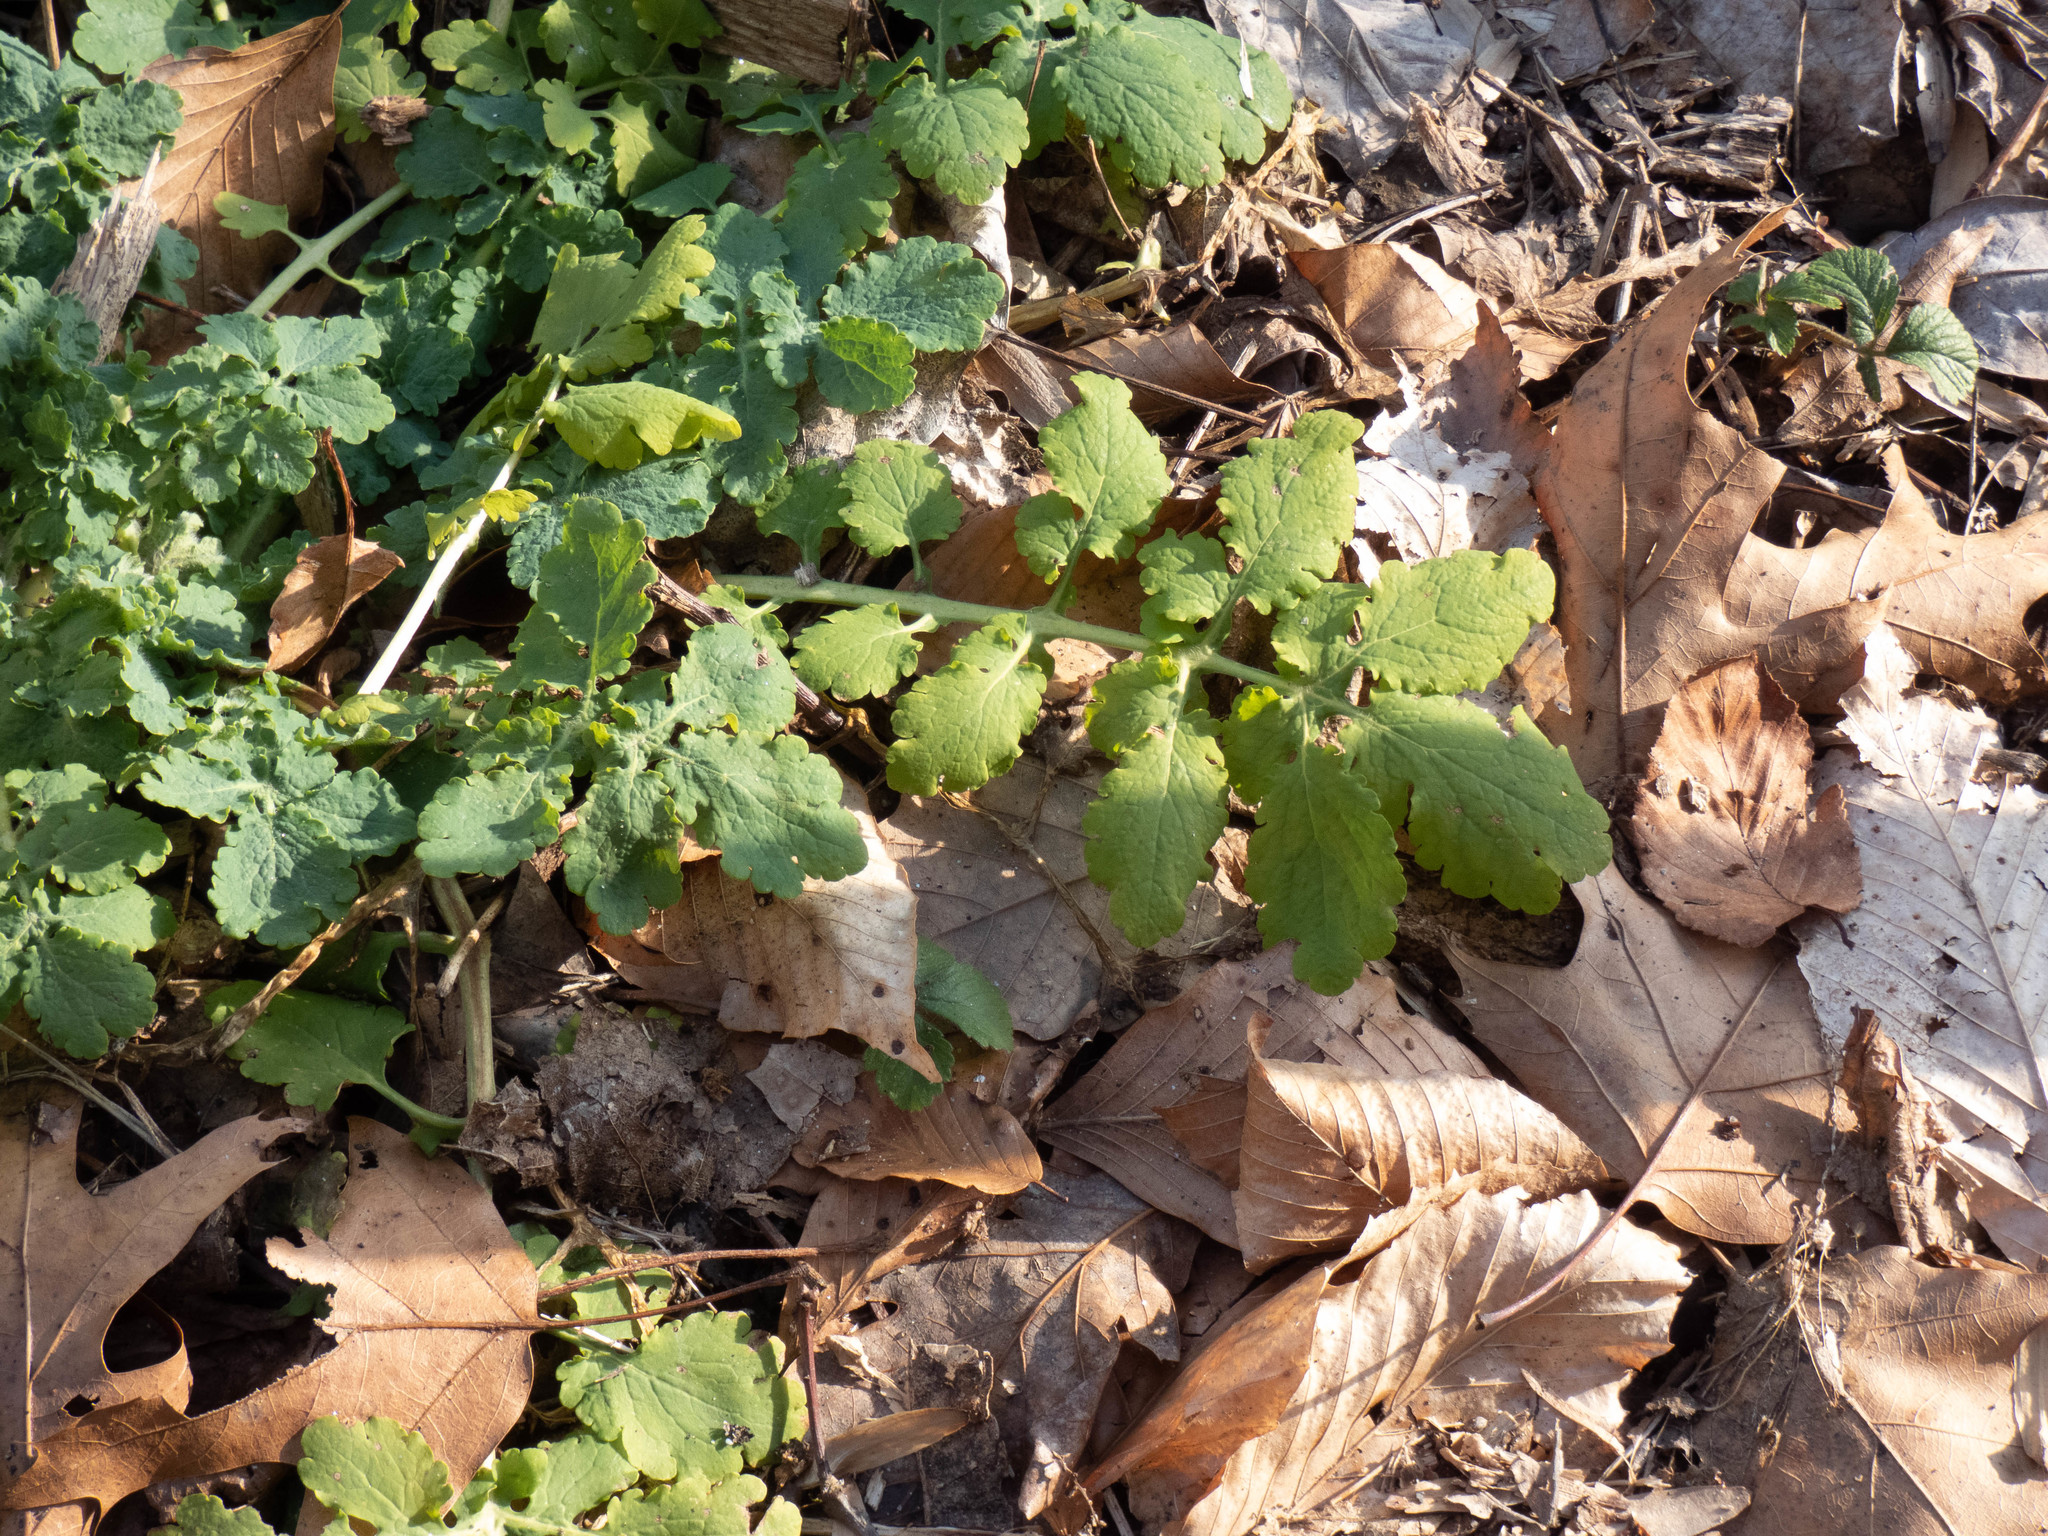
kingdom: Plantae
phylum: Tracheophyta
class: Magnoliopsida
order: Ranunculales
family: Papaveraceae
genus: Chelidonium
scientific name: Chelidonium majus
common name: Greater celandine
